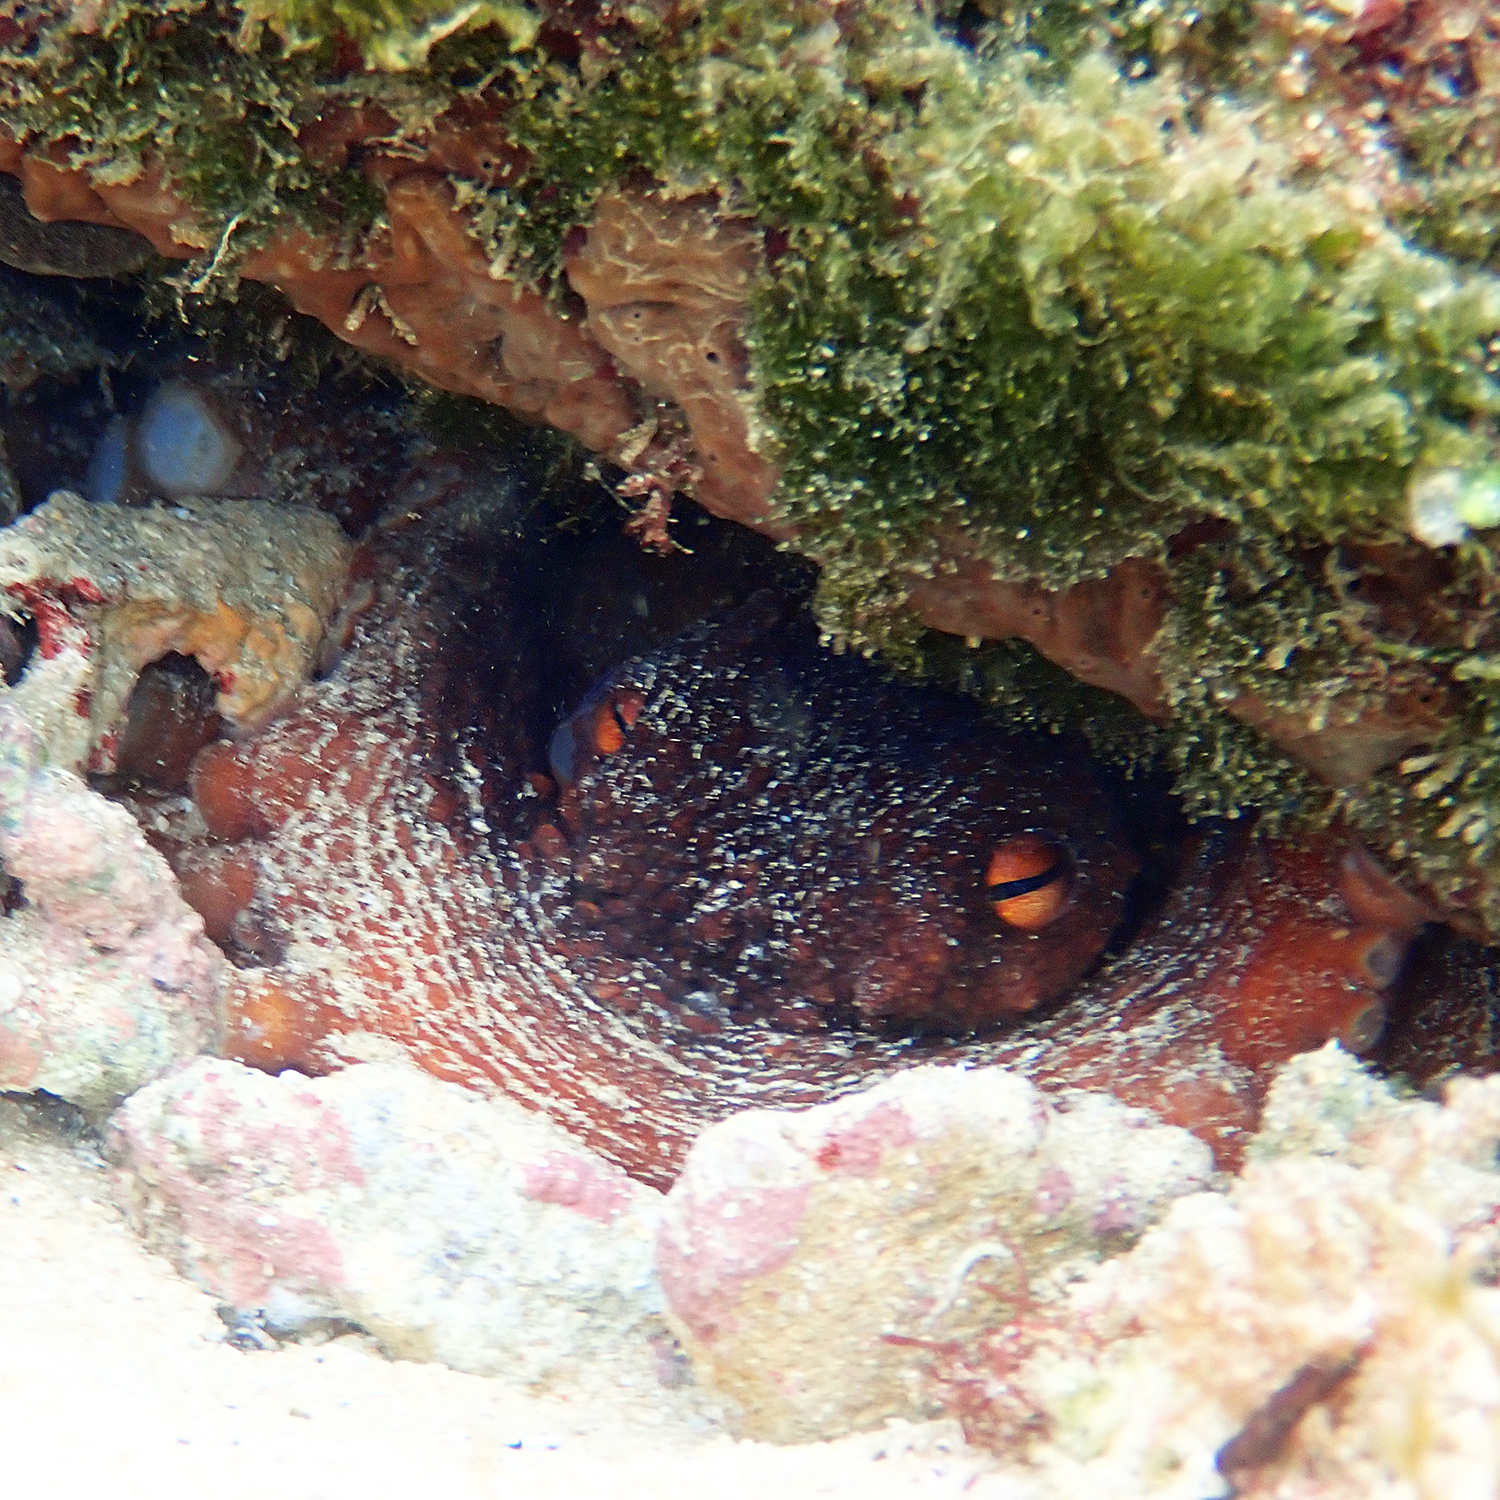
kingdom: Animalia
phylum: Mollusca
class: Cephalopoda
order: Octopoda
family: Octopodidae
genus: Octopus
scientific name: Octopus tetricus
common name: Sydney octopus
